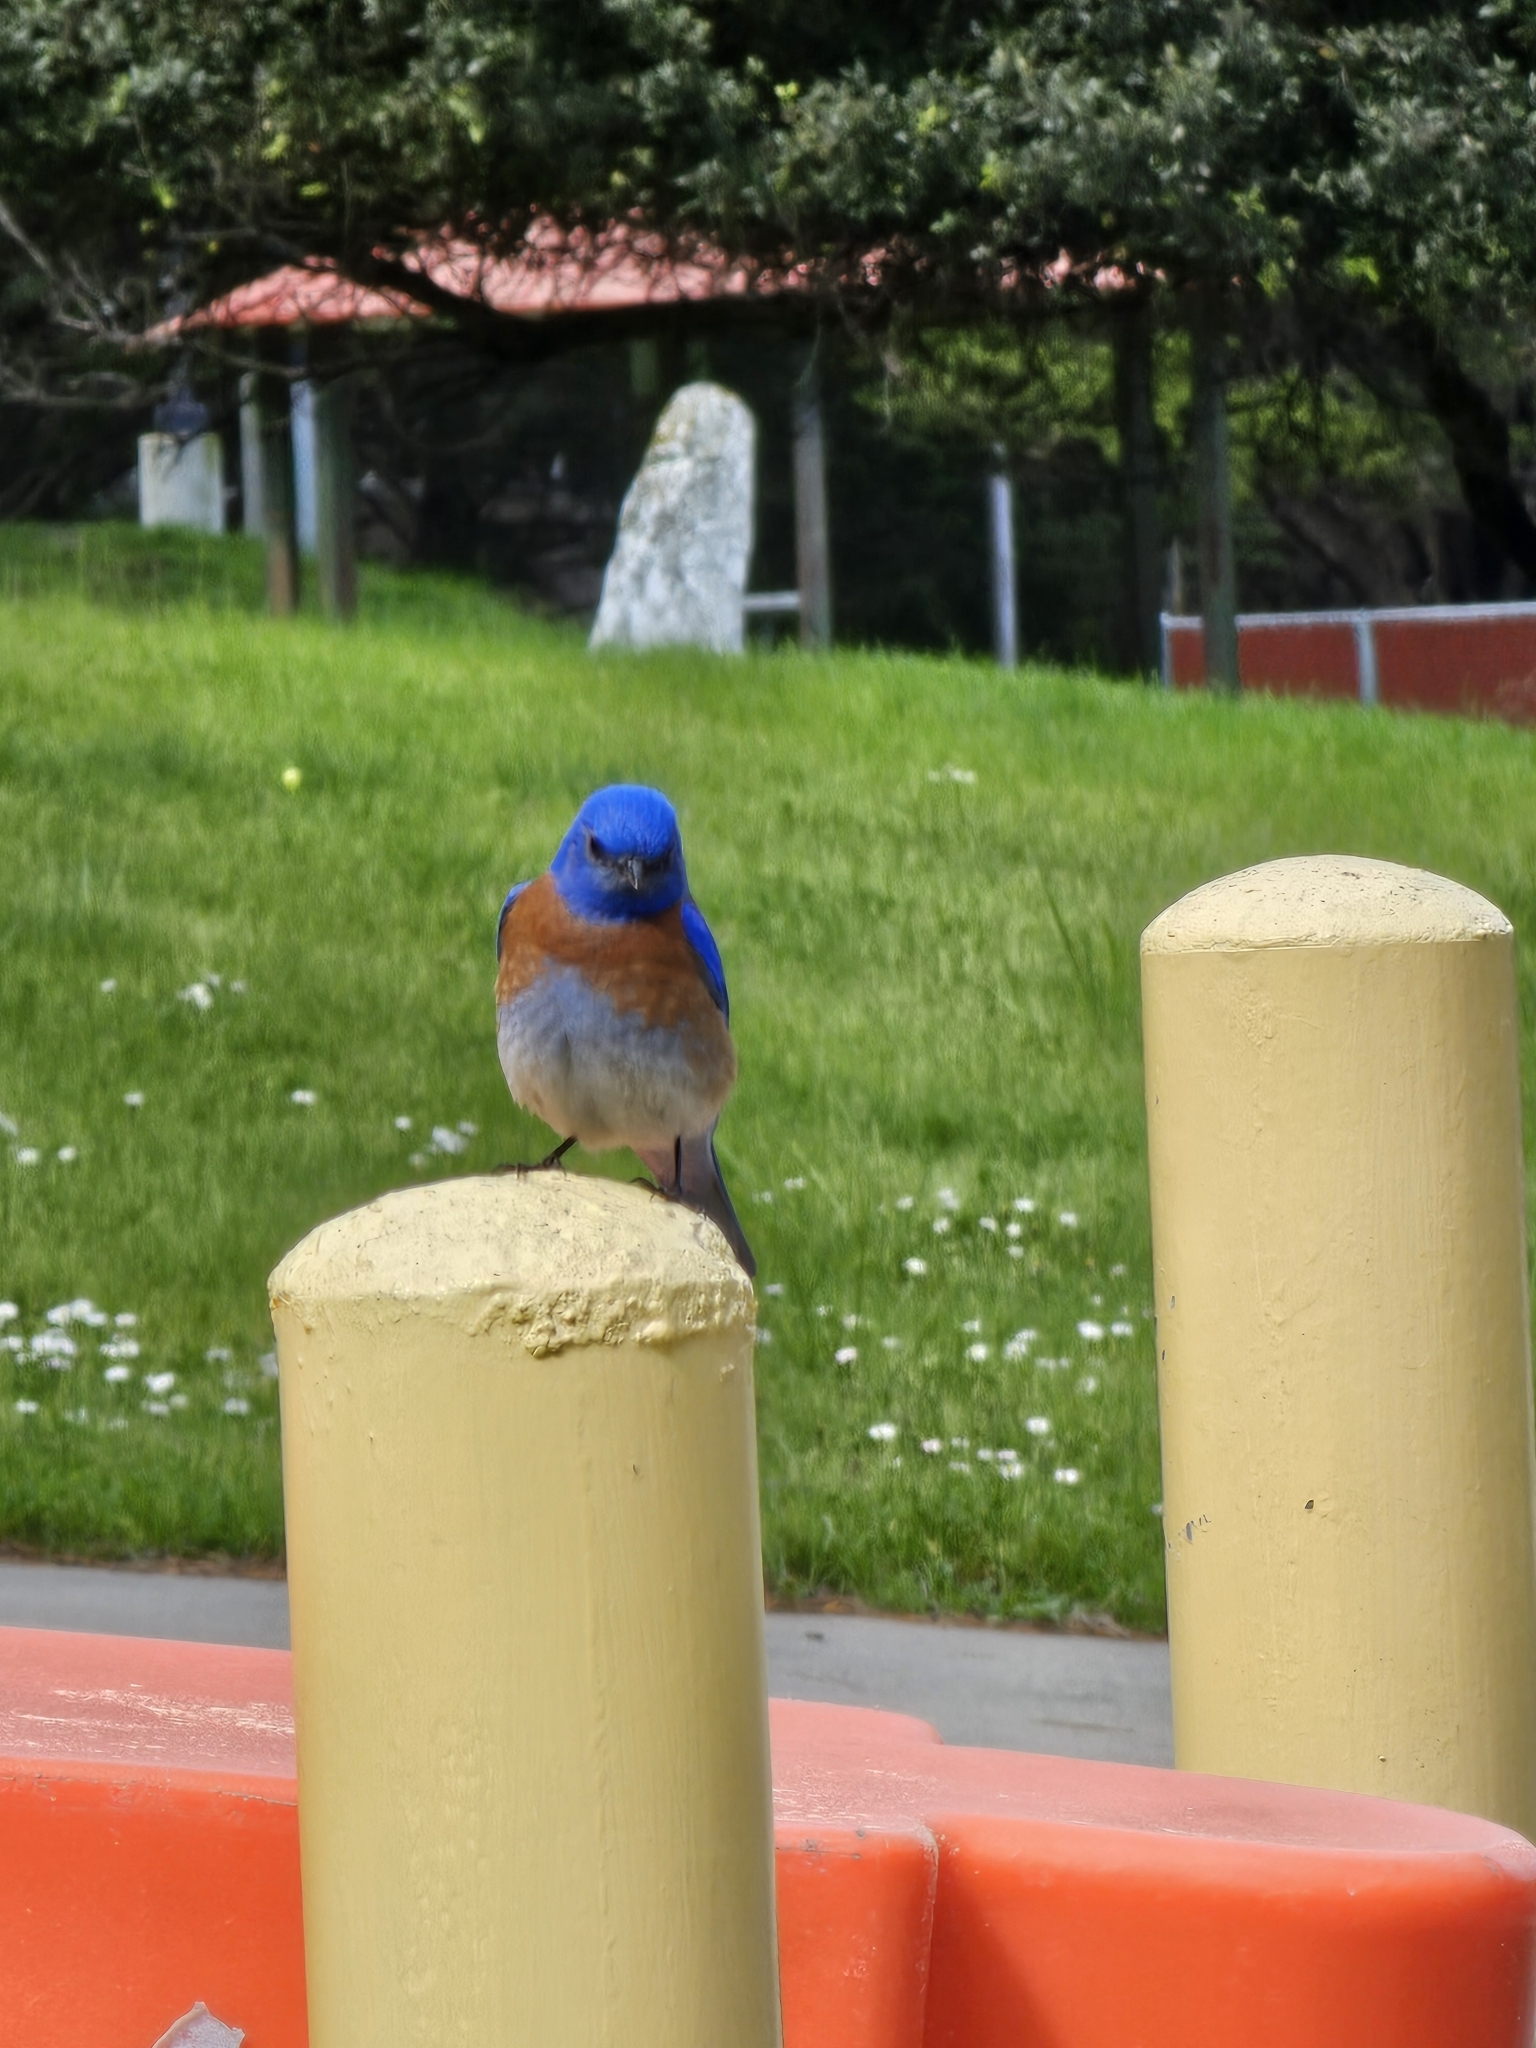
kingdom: Animalia
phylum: Chordata
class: Aves
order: Passeriformes
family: Turdidae
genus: Sialia
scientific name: Sialia mexicana
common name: Western bluebird
